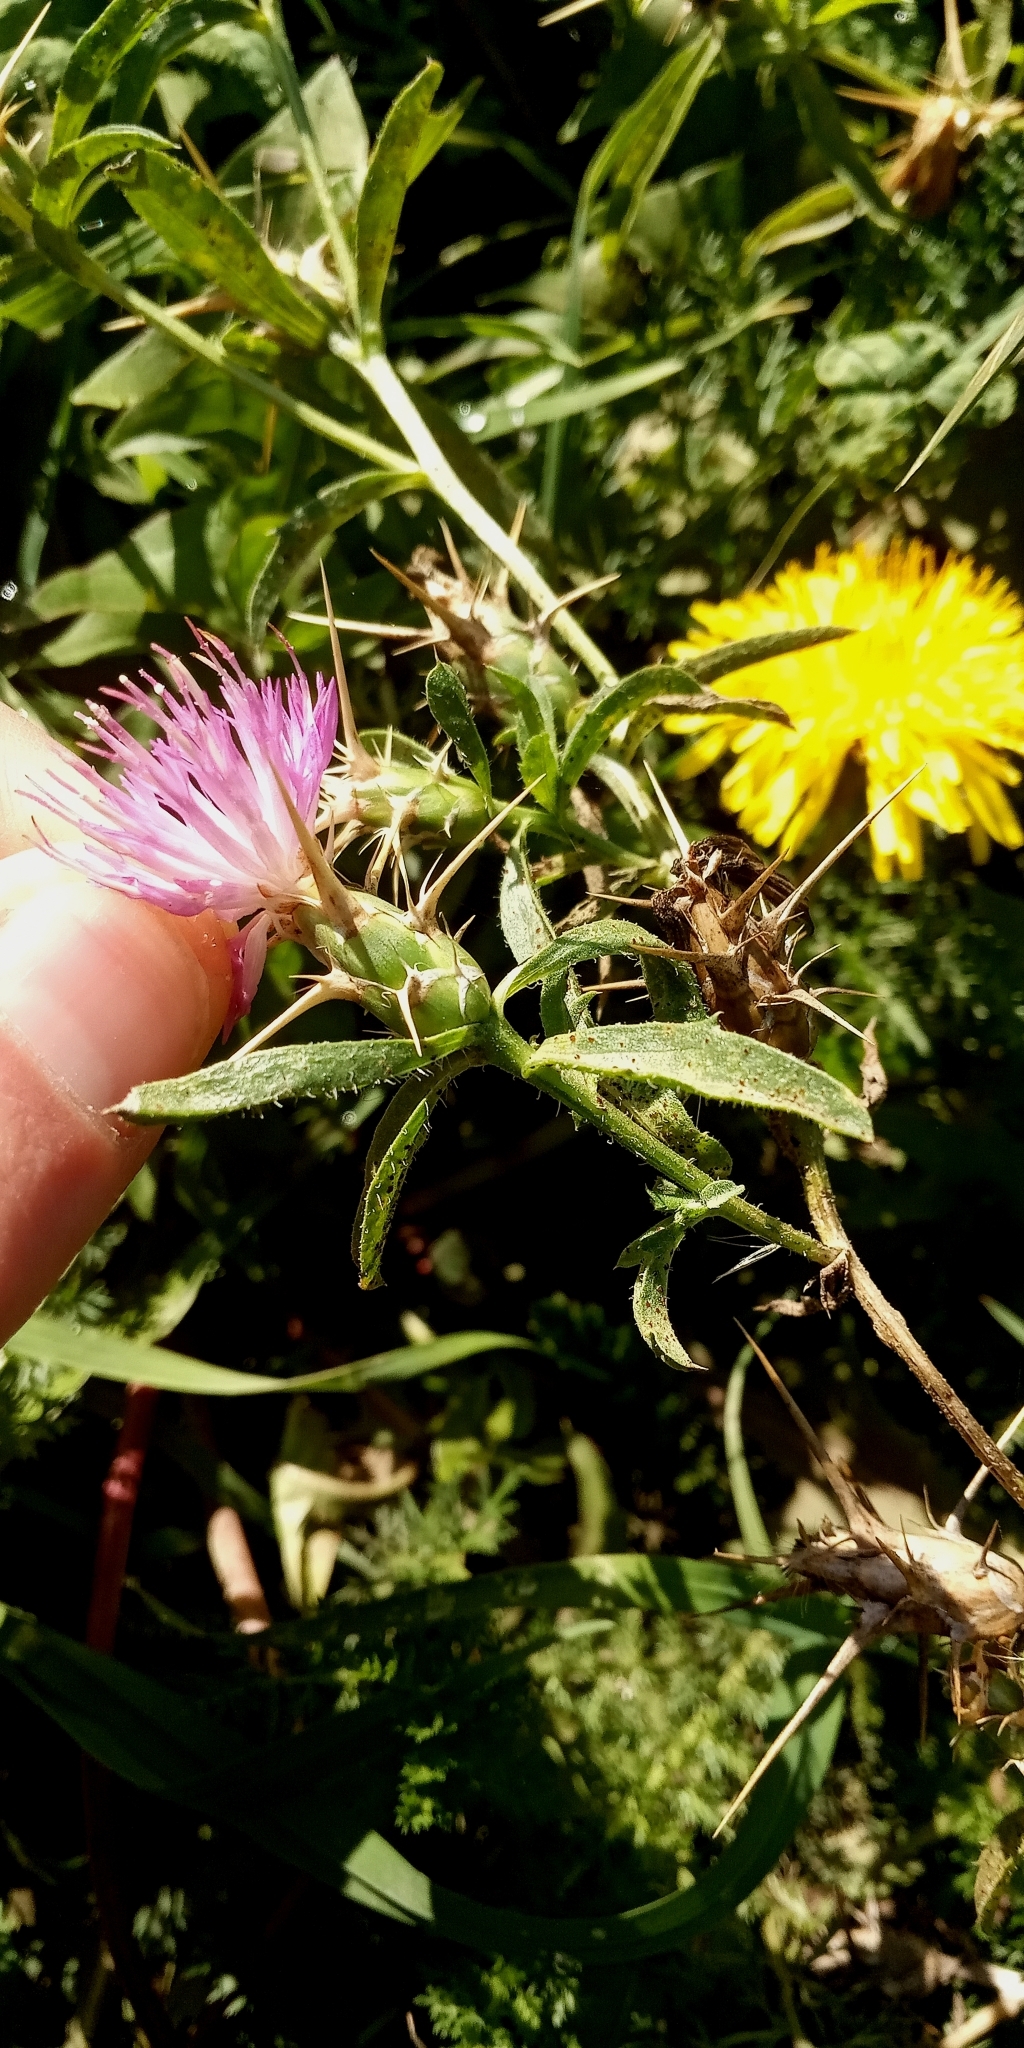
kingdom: Plantae
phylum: Tracheophyta
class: Magnoliopsida
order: Asterales
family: Asteraceae
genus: Centaurea
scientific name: Centaurea jacea
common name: Brown knapweed
